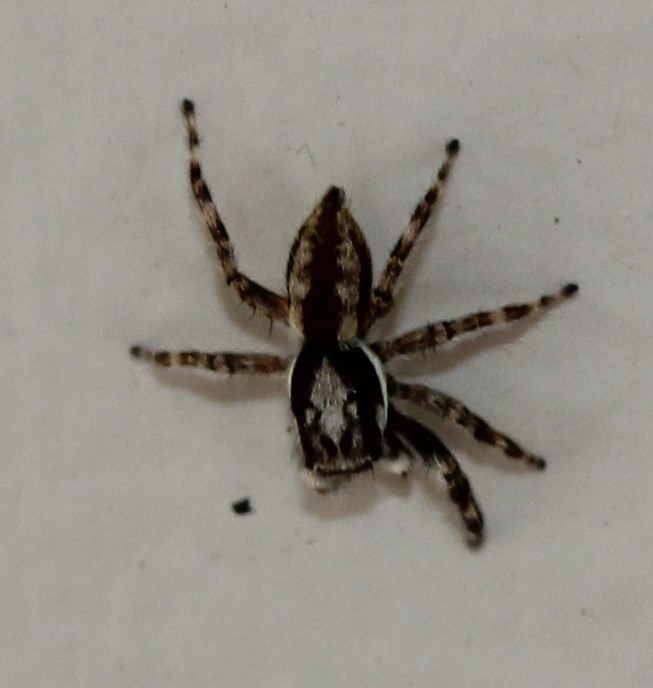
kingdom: Animalia
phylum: Arthropoda
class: Arachnida
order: Araneae
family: Salticidae
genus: Menemerus
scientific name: Menemerus bivittatus
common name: Gray wall jumper
